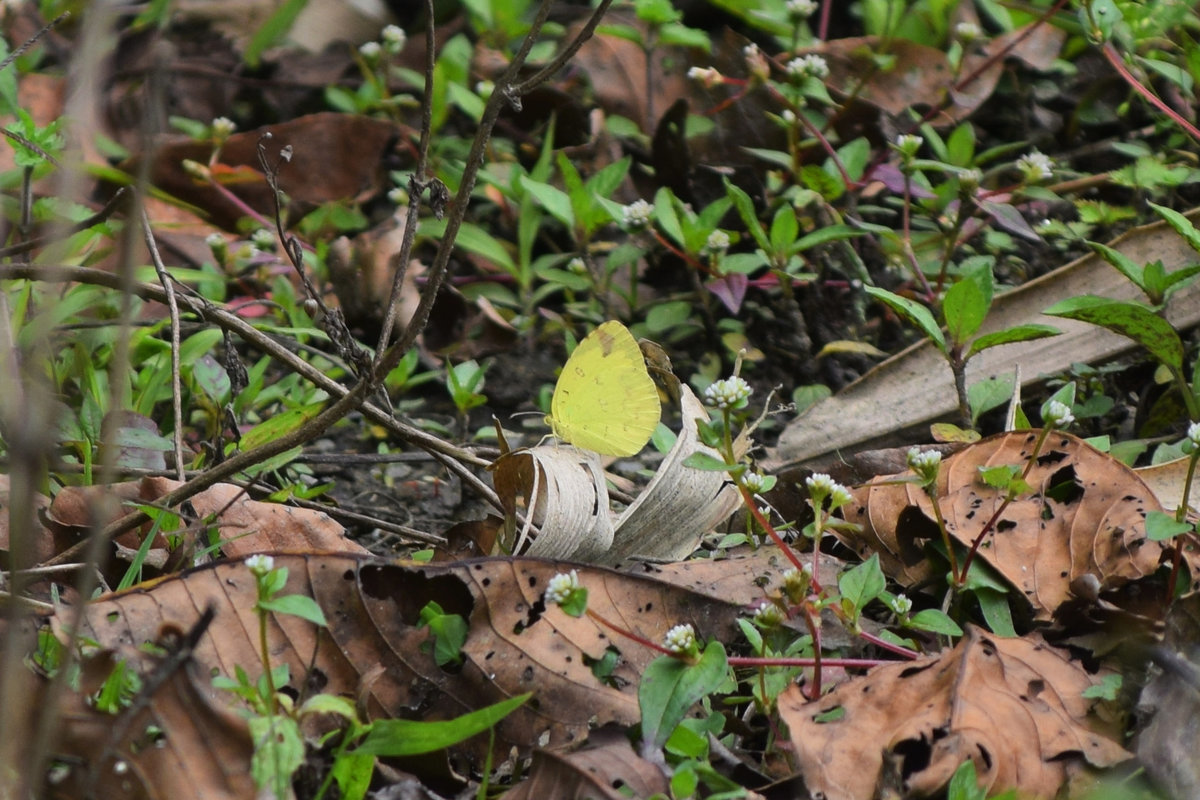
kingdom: Animalia
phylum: Arthropoda
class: Insecta
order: Lepidoptera
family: Pieridae
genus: Eurema
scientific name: Eurema hecabe
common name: Pale grass yellow
